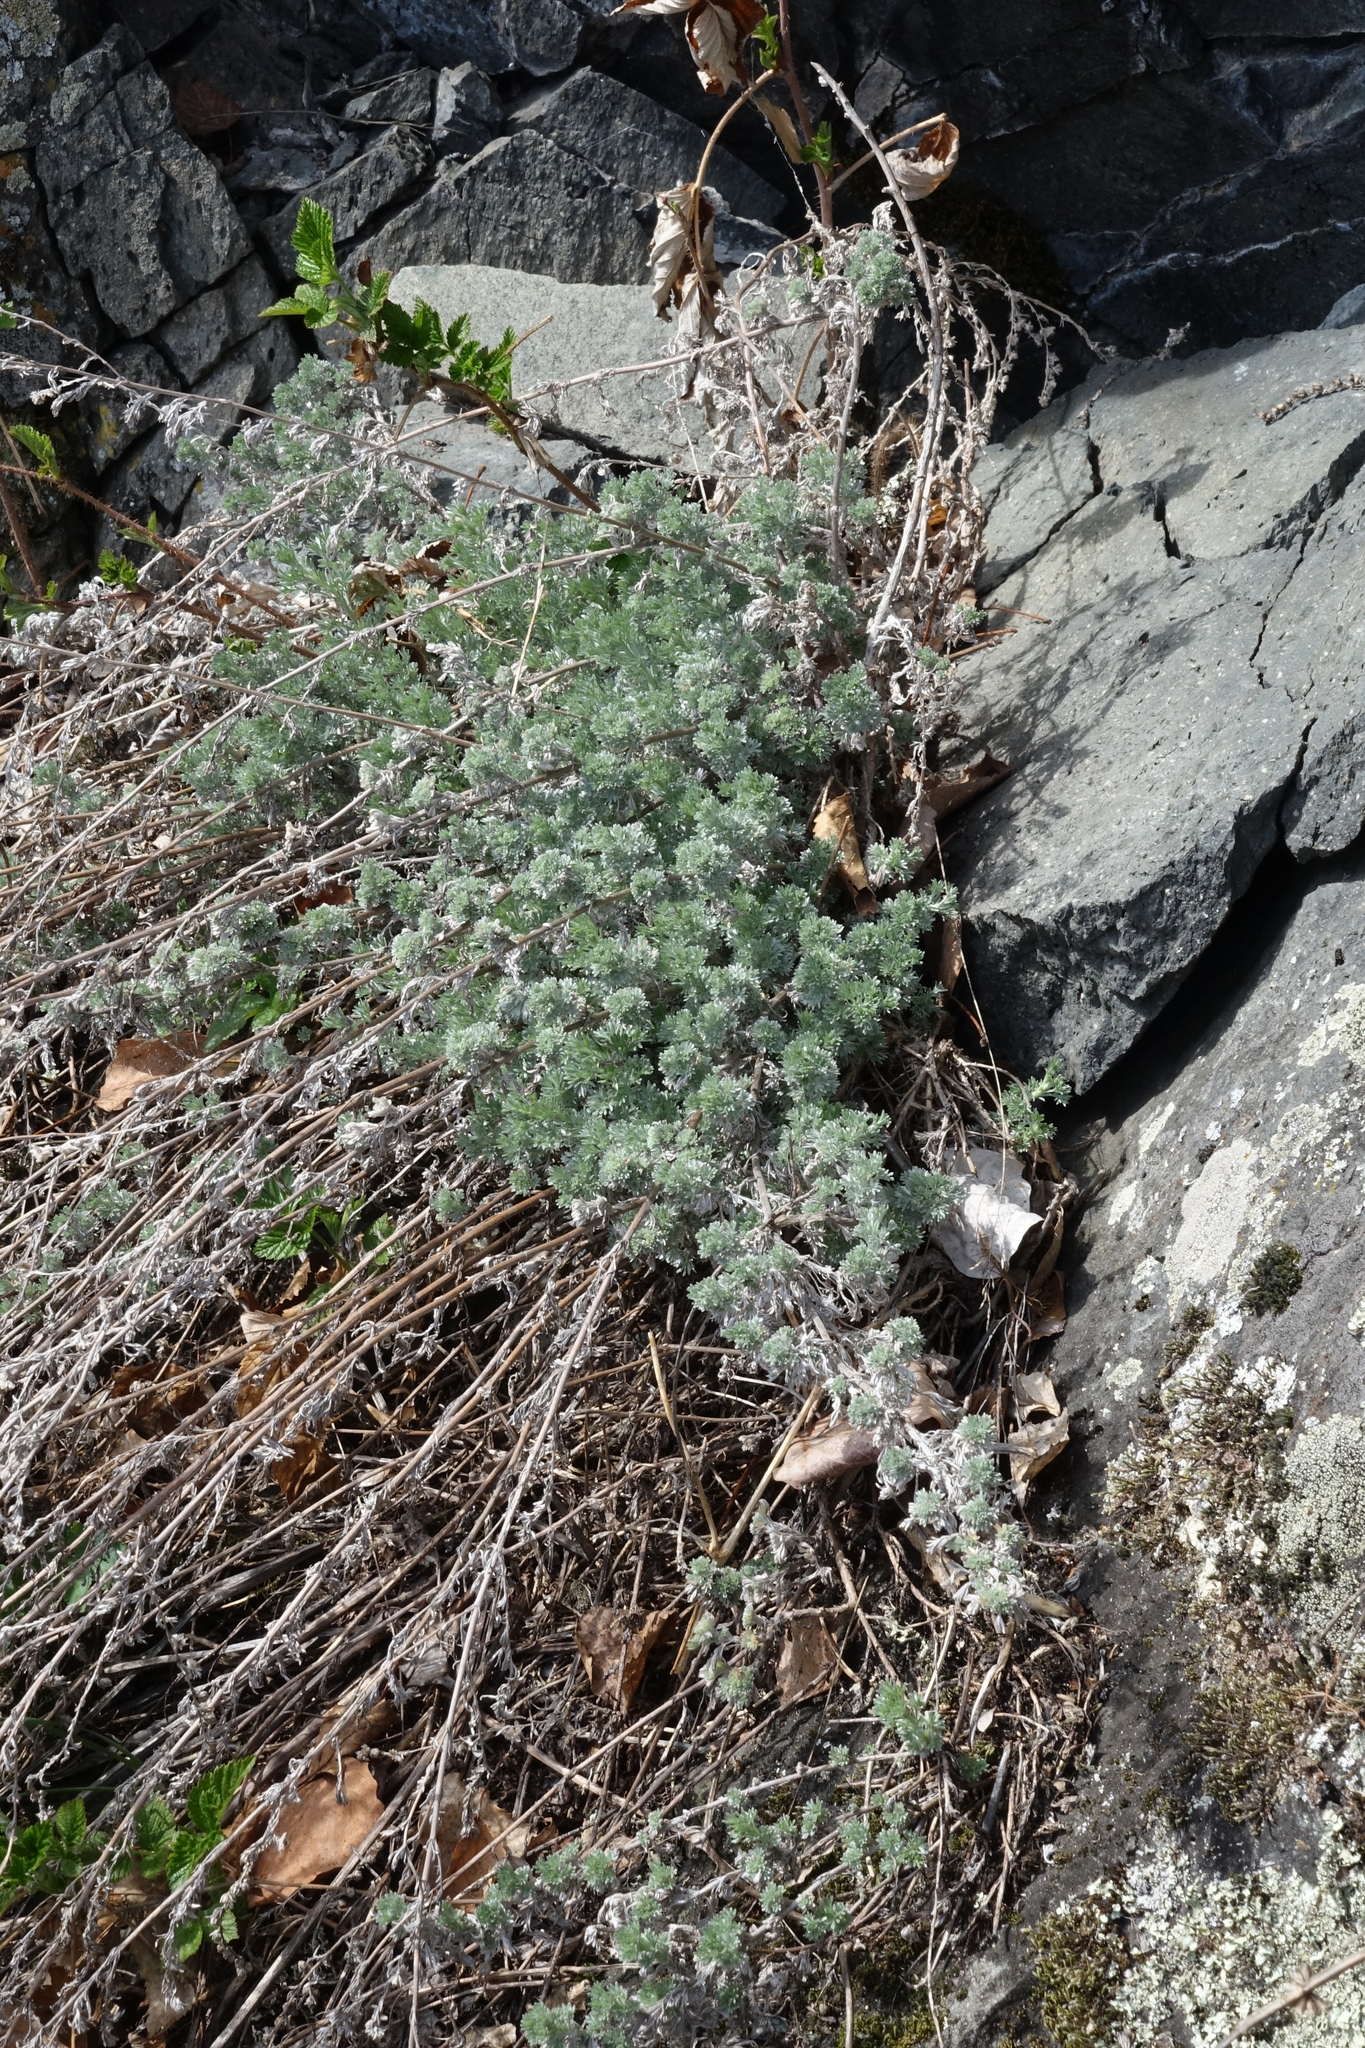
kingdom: Plantae
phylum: Tracheophyta
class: Magnoliopsida
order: Asterales
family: Asteraceae
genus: Artemisia
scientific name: Artemisia frigida
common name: Prairie sagewort
